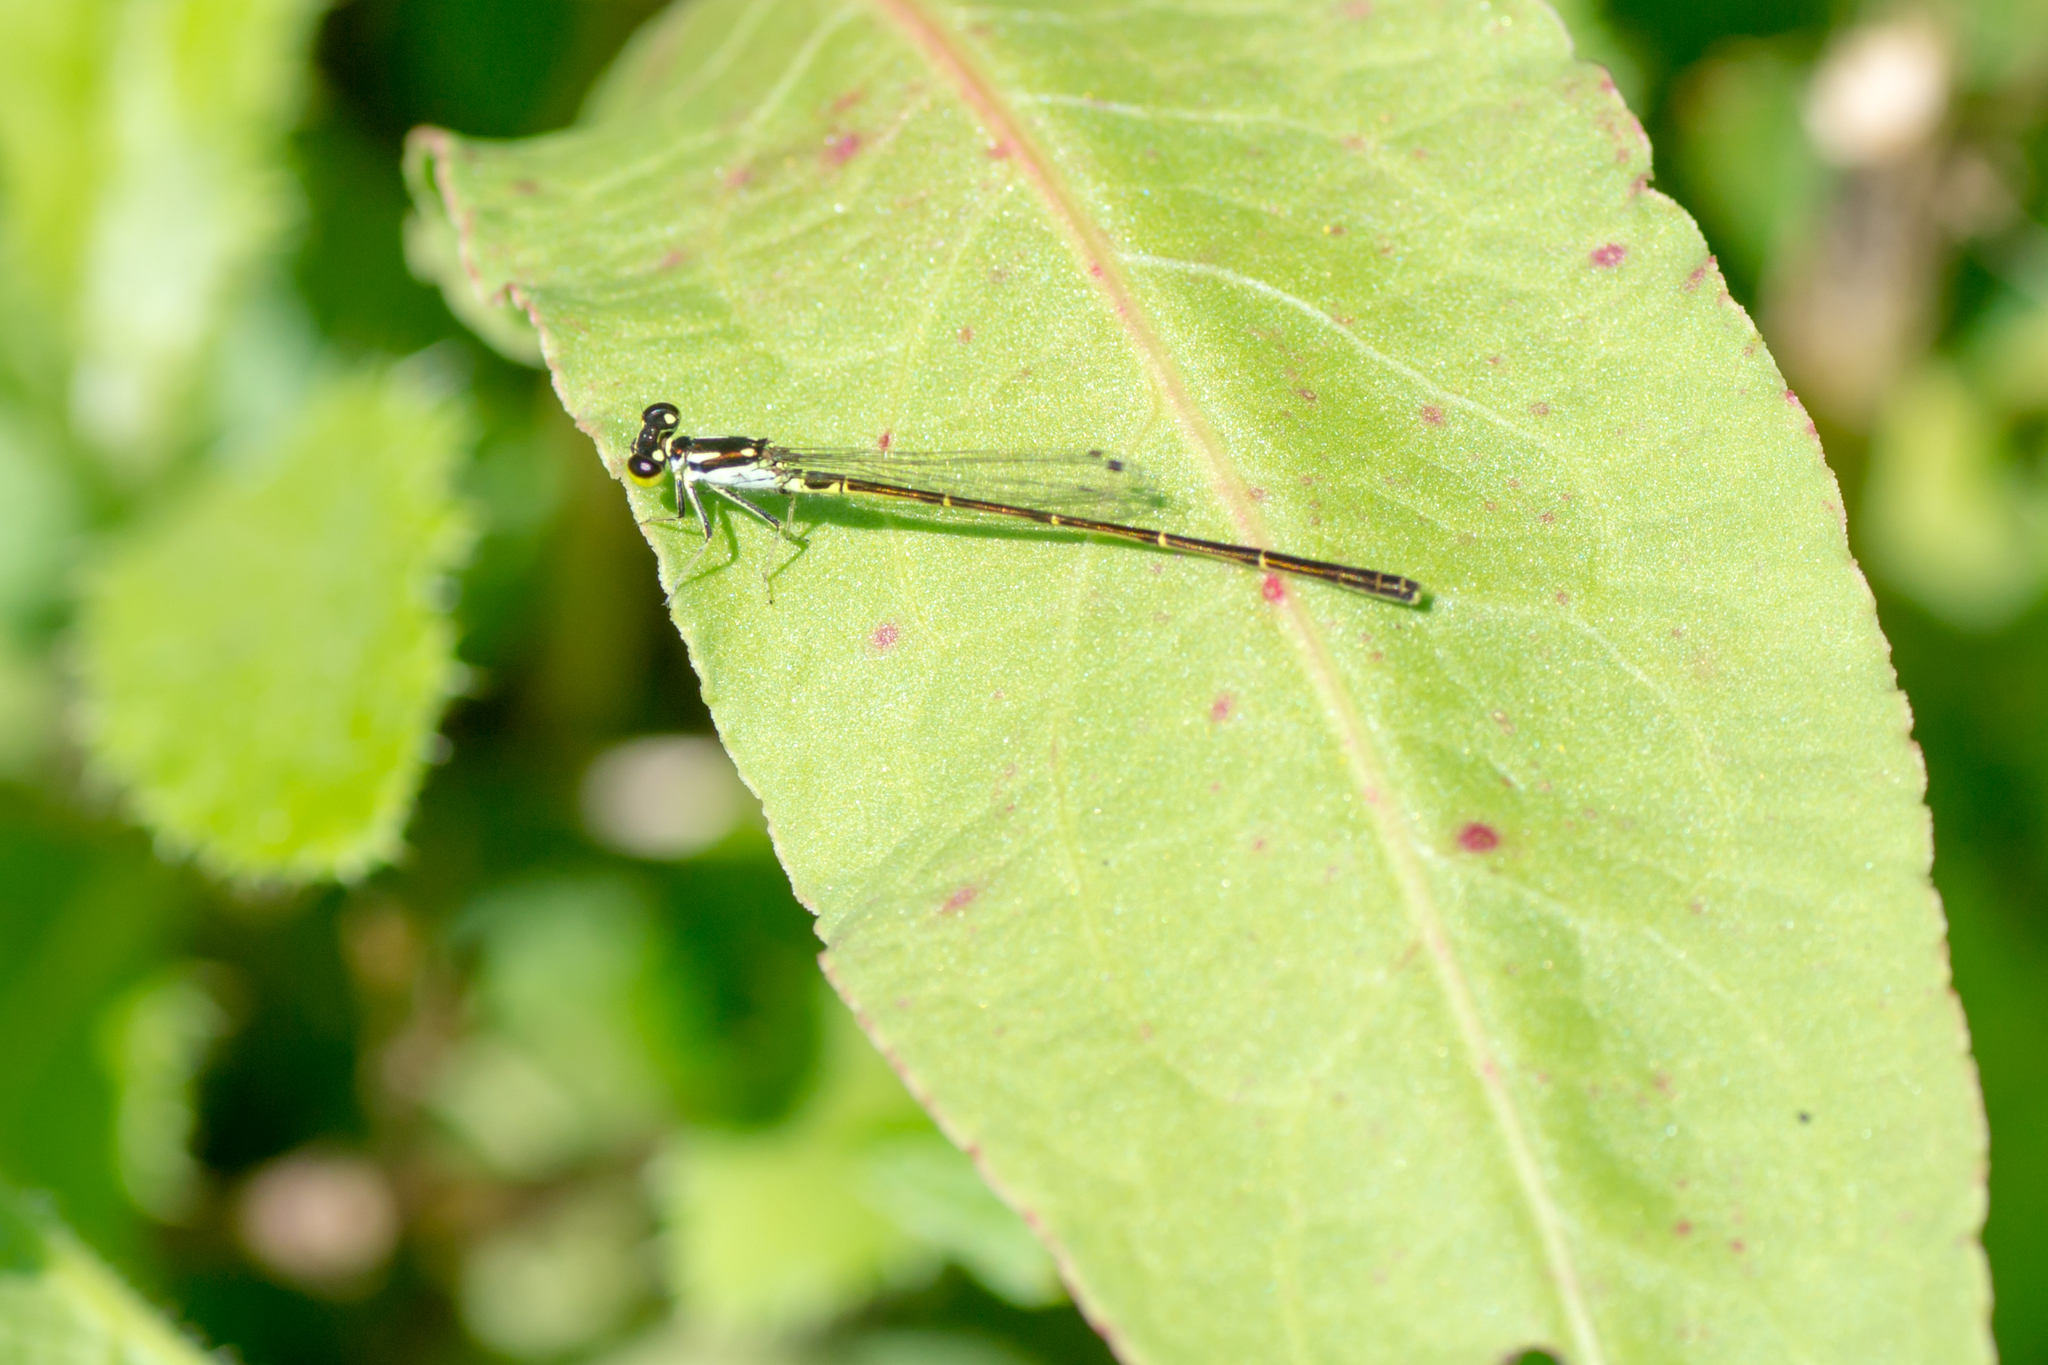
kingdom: Animalia
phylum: Arthropoda
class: Insecta
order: Odonata
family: Coenagrionidae
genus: Ischnura
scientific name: Ischnura posita
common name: Fragile forktail
